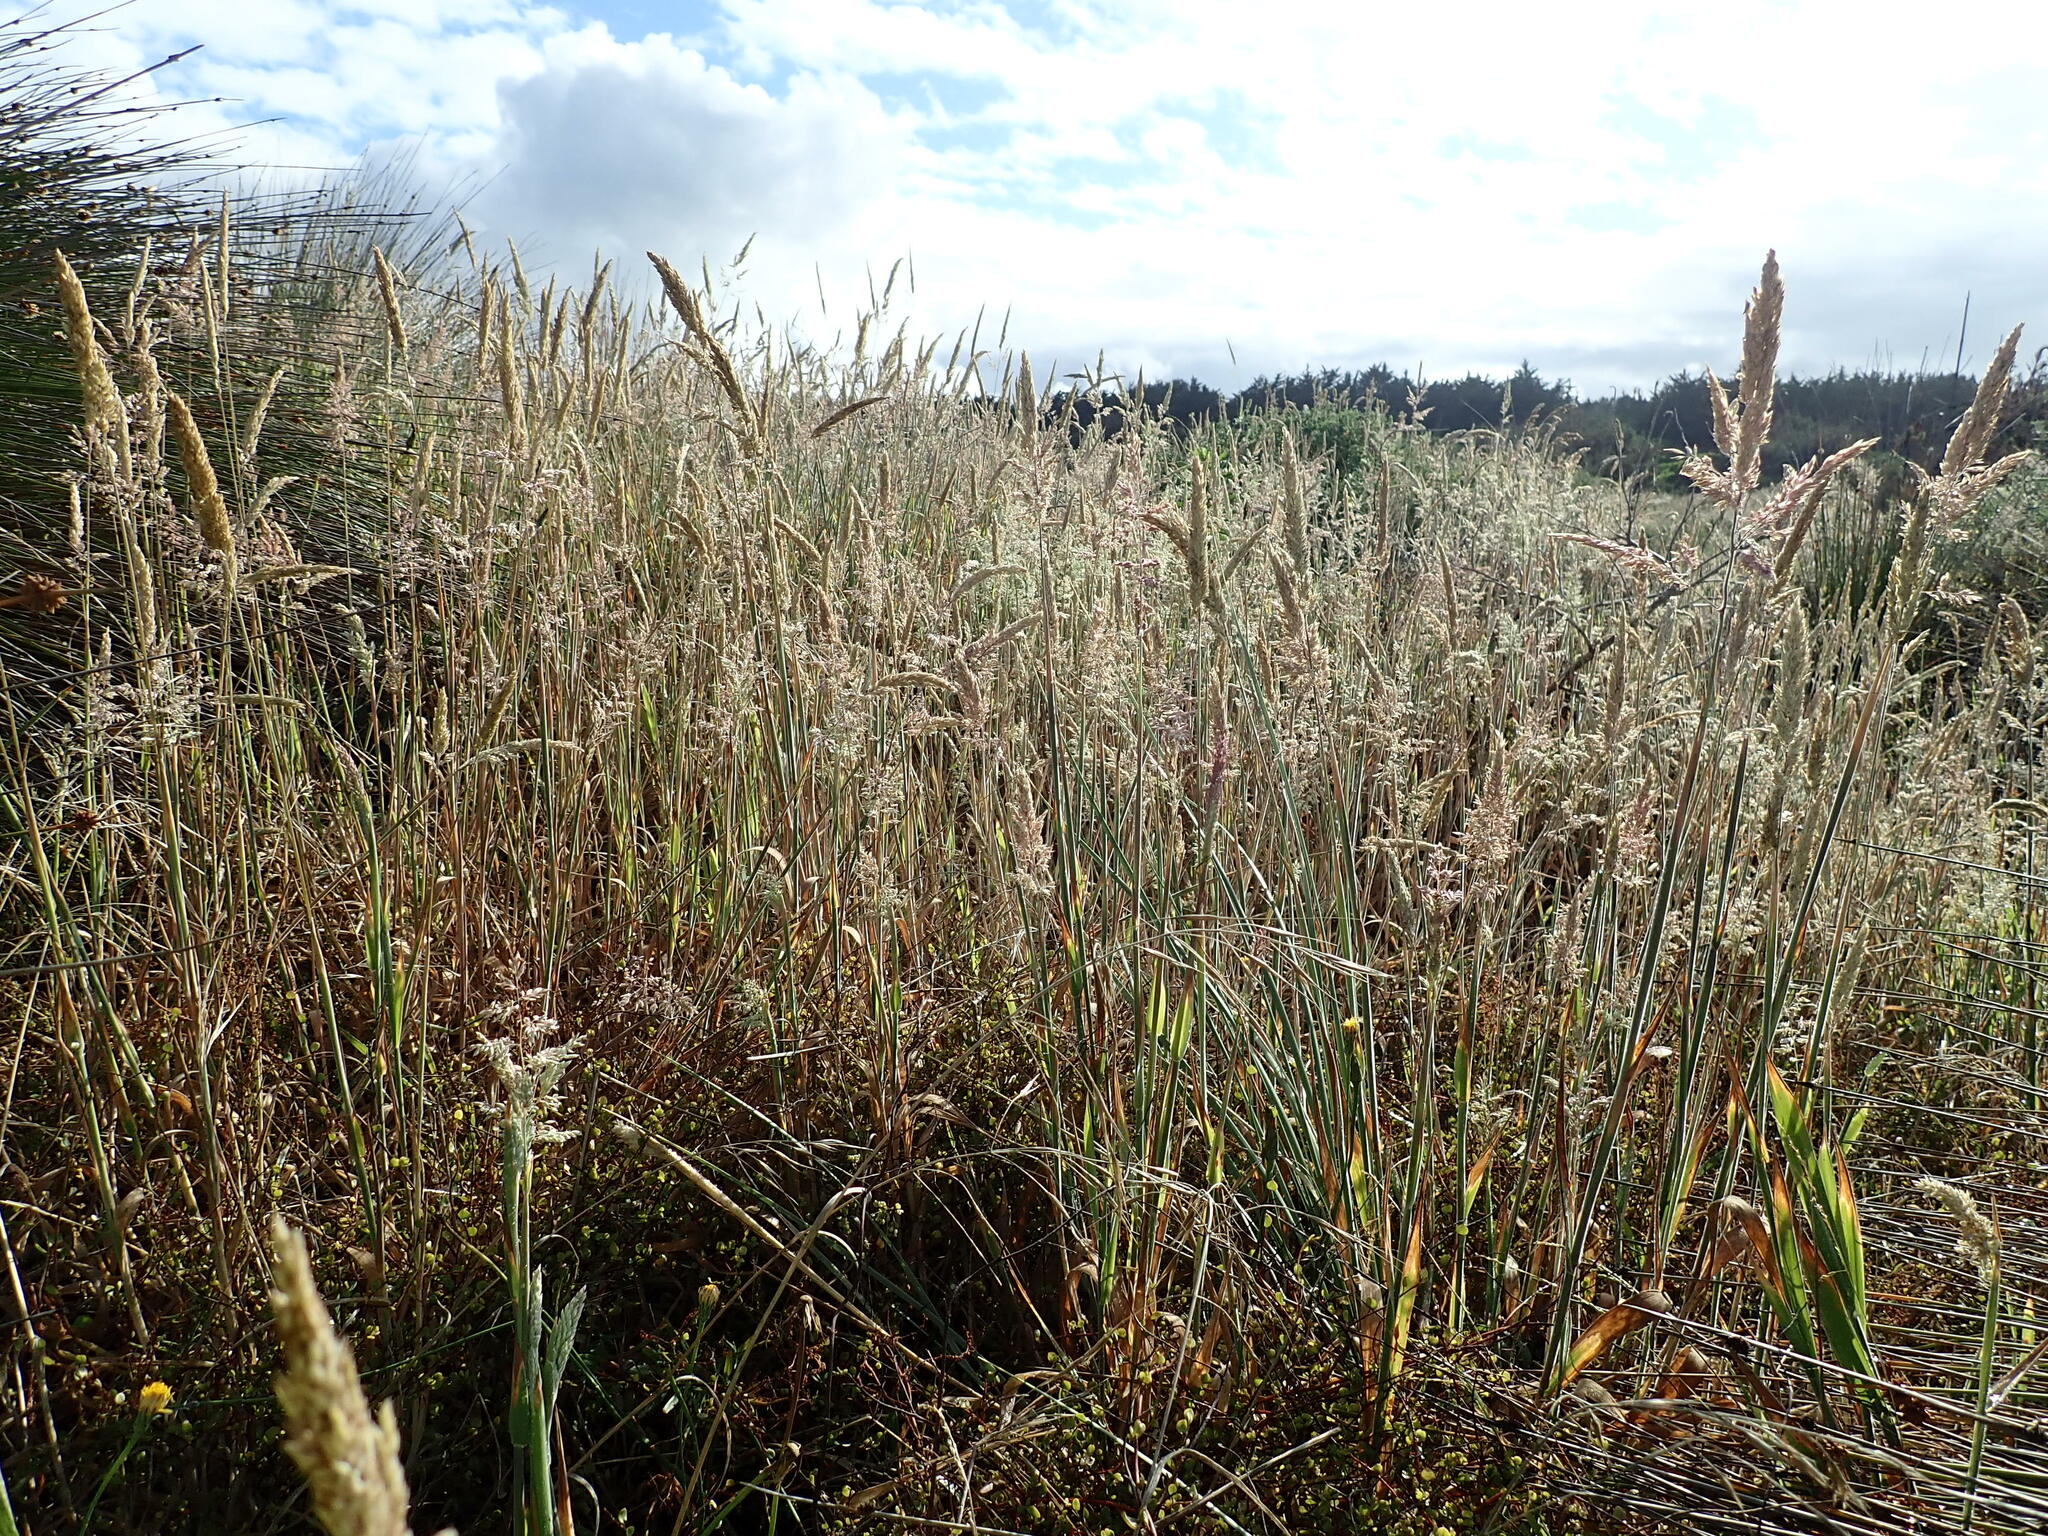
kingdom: Plantae
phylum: Tracheophyta
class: Liliopsida
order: Poales
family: Poaceae
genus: Holcus
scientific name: Holcus lanatus
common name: Yorkshire-fog
